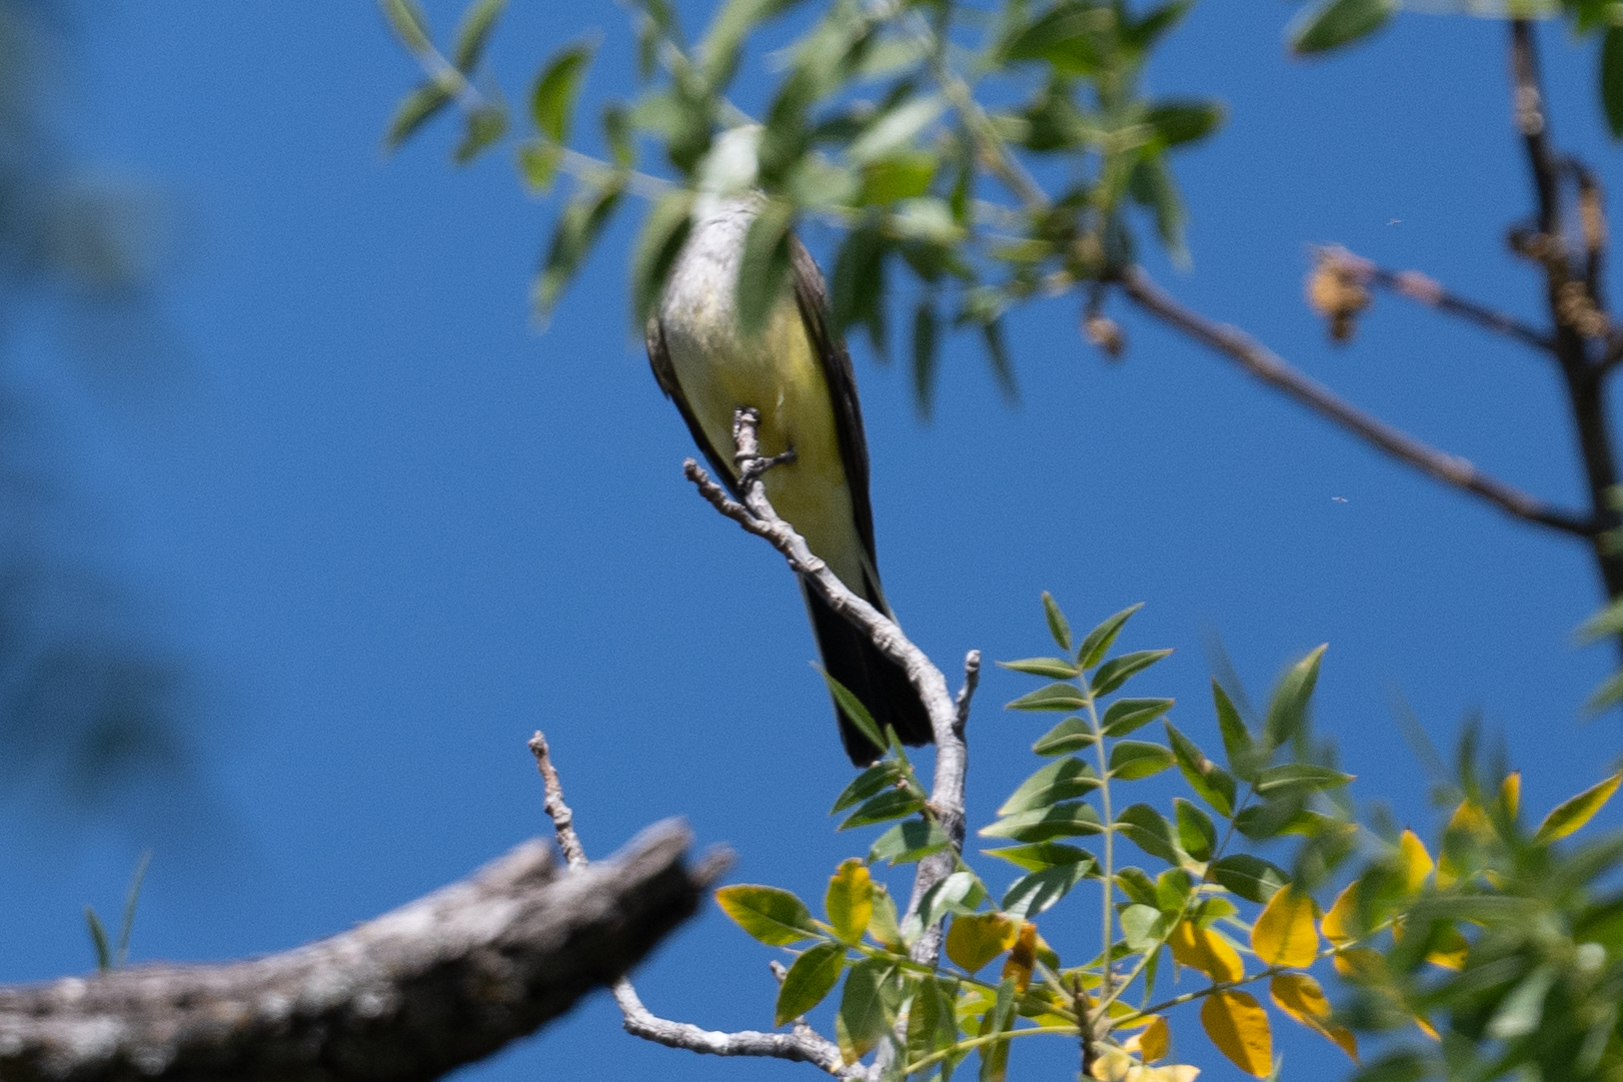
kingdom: Animalia
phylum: Chordata
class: Aves
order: Passeriformes
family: Tyrannidae
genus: Tyrannus
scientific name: Tyrannus verticalis
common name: Western kingbird
